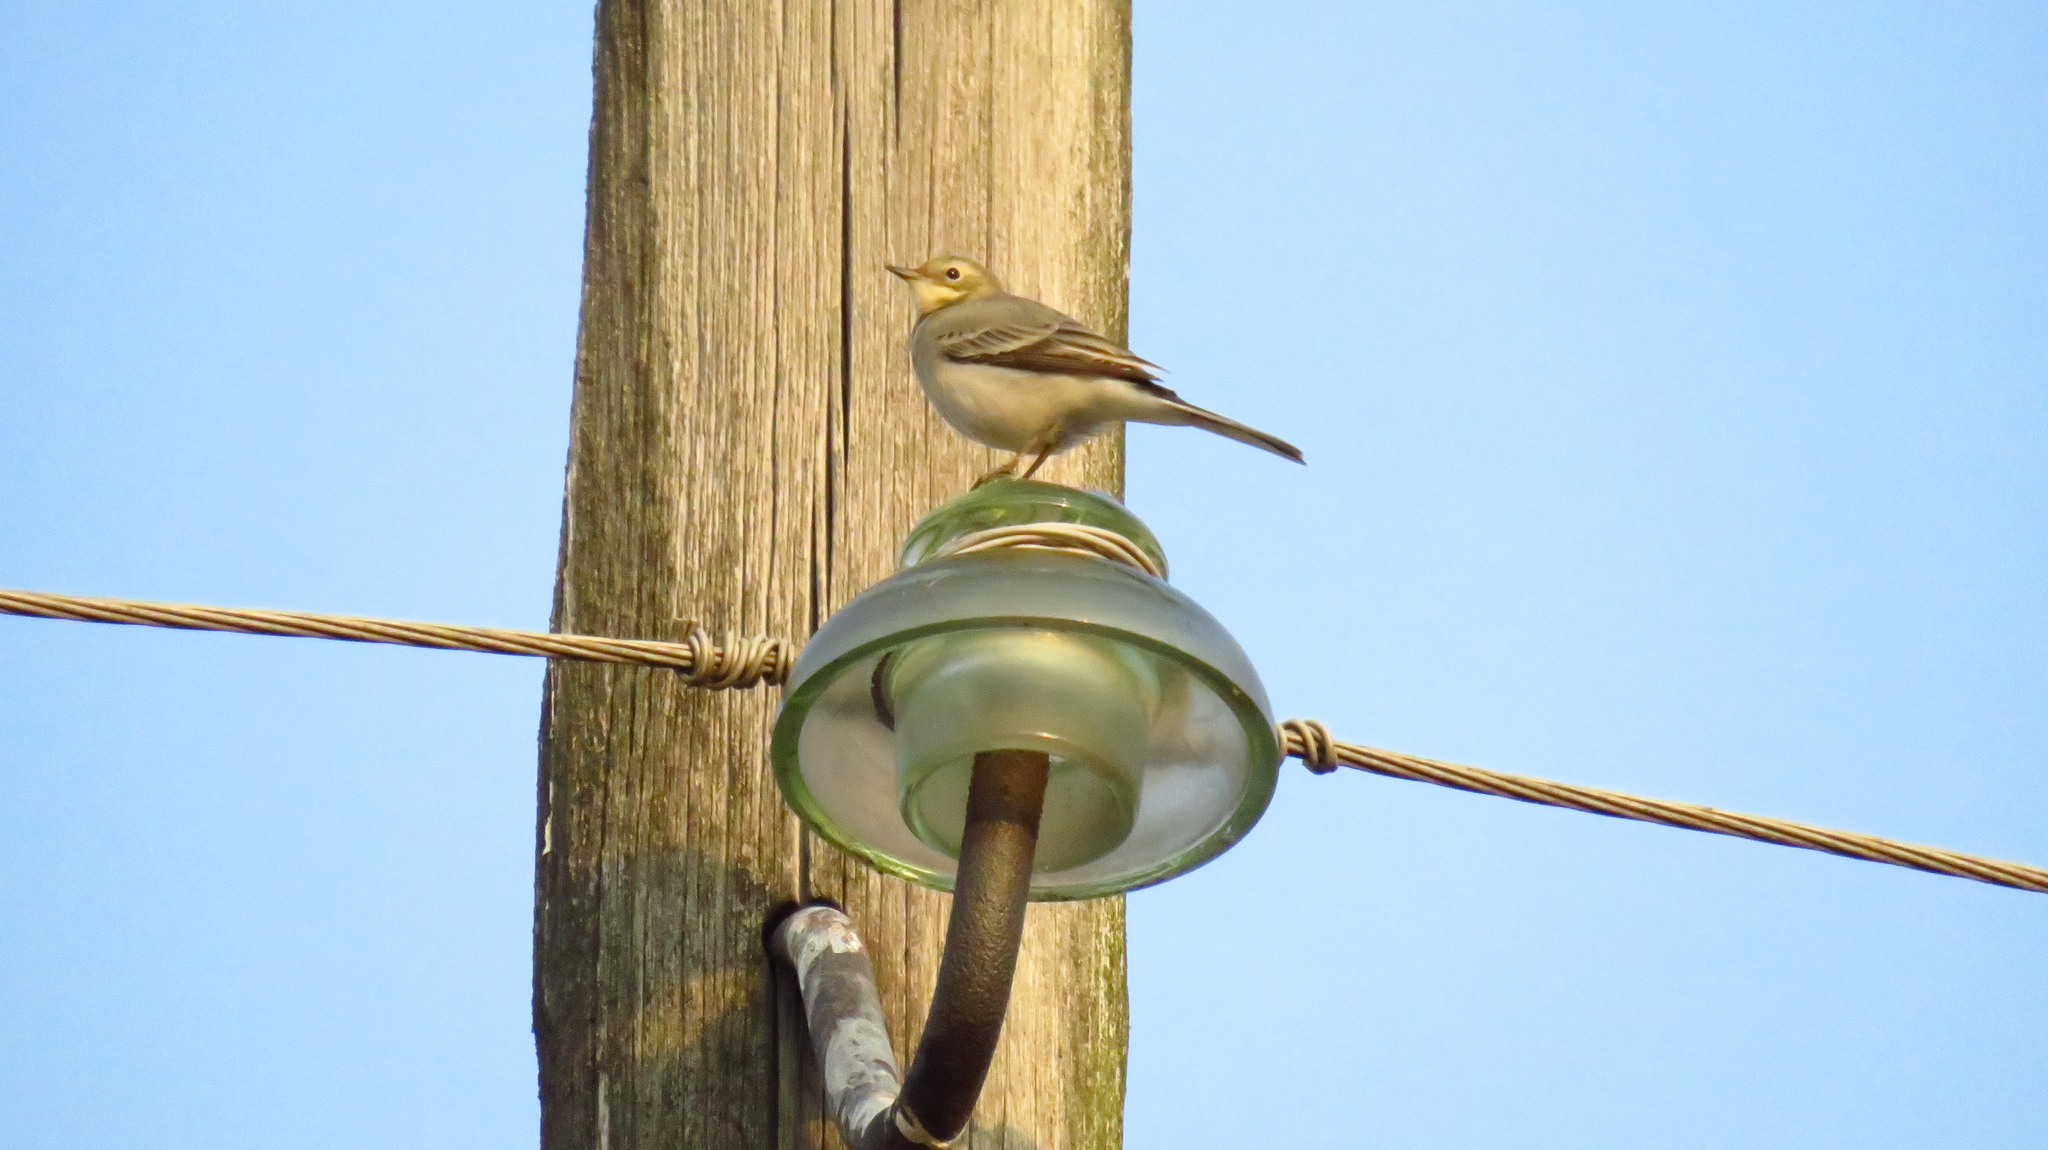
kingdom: Animalia
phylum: Chordata
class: Aves
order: Passeriformes
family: Motacillidae
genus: Motacilla
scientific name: Motacilla citreola
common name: Citrine wagtail
